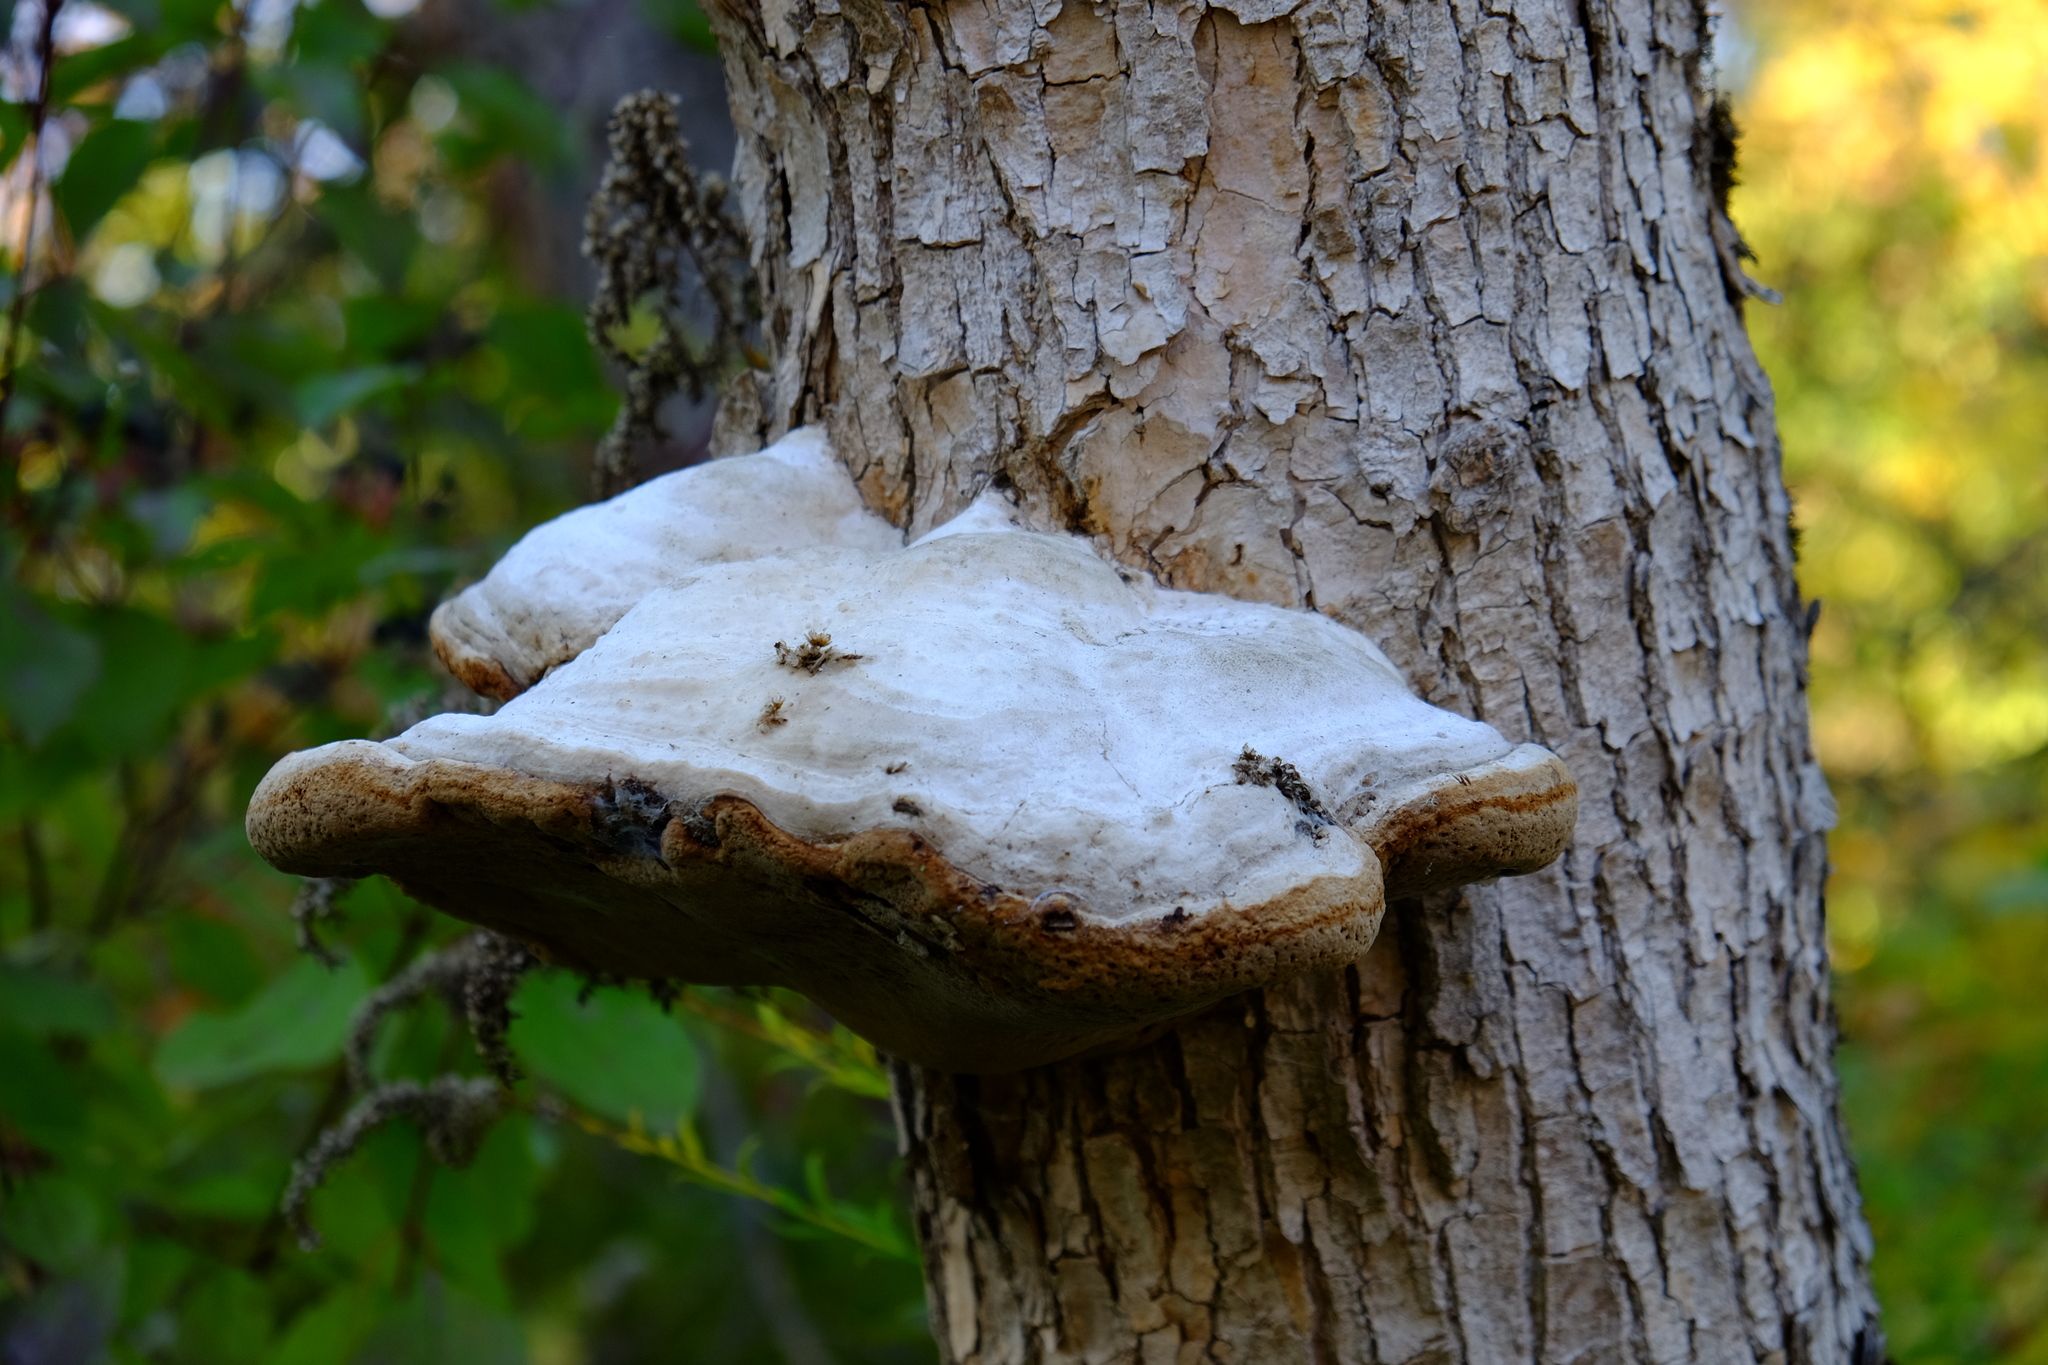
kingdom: Fungi
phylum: Basidiomycota
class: Agaricomycetes
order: Polyporales
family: Polyporaceae
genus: Fomes
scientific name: Fomes fomentarius
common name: Hoof fungus
